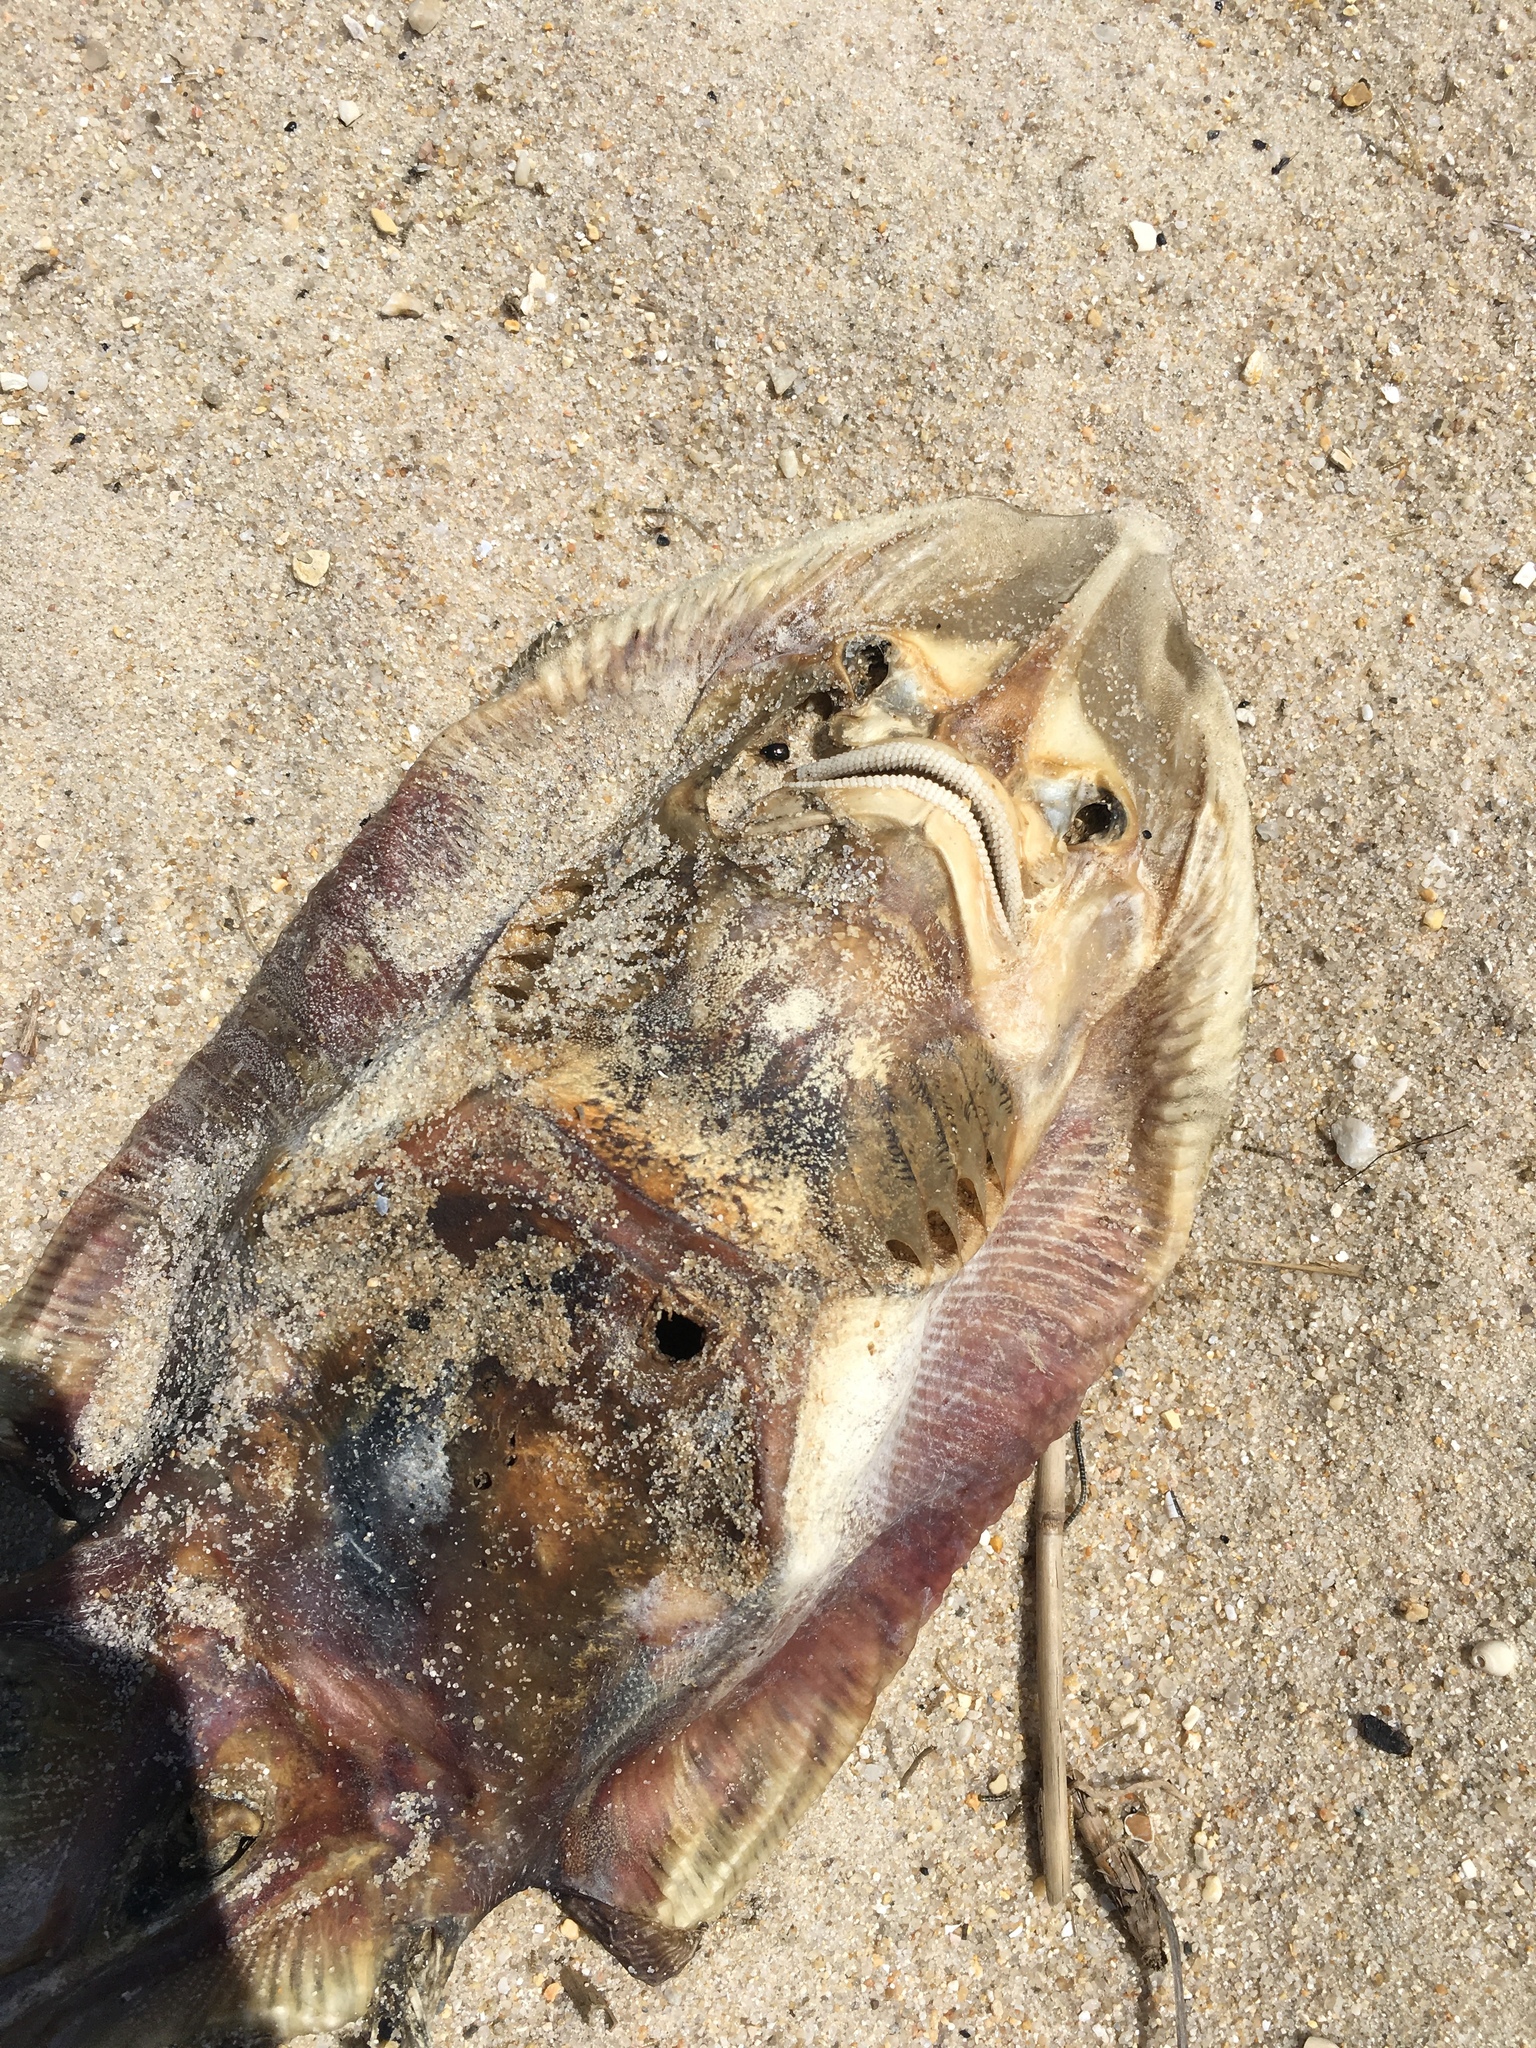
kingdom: Animalia
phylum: Chordata
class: Elasmobranchii
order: Rajiformes
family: Rajidae
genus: Raja
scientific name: Raja eglanteria
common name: Clearnose skate
